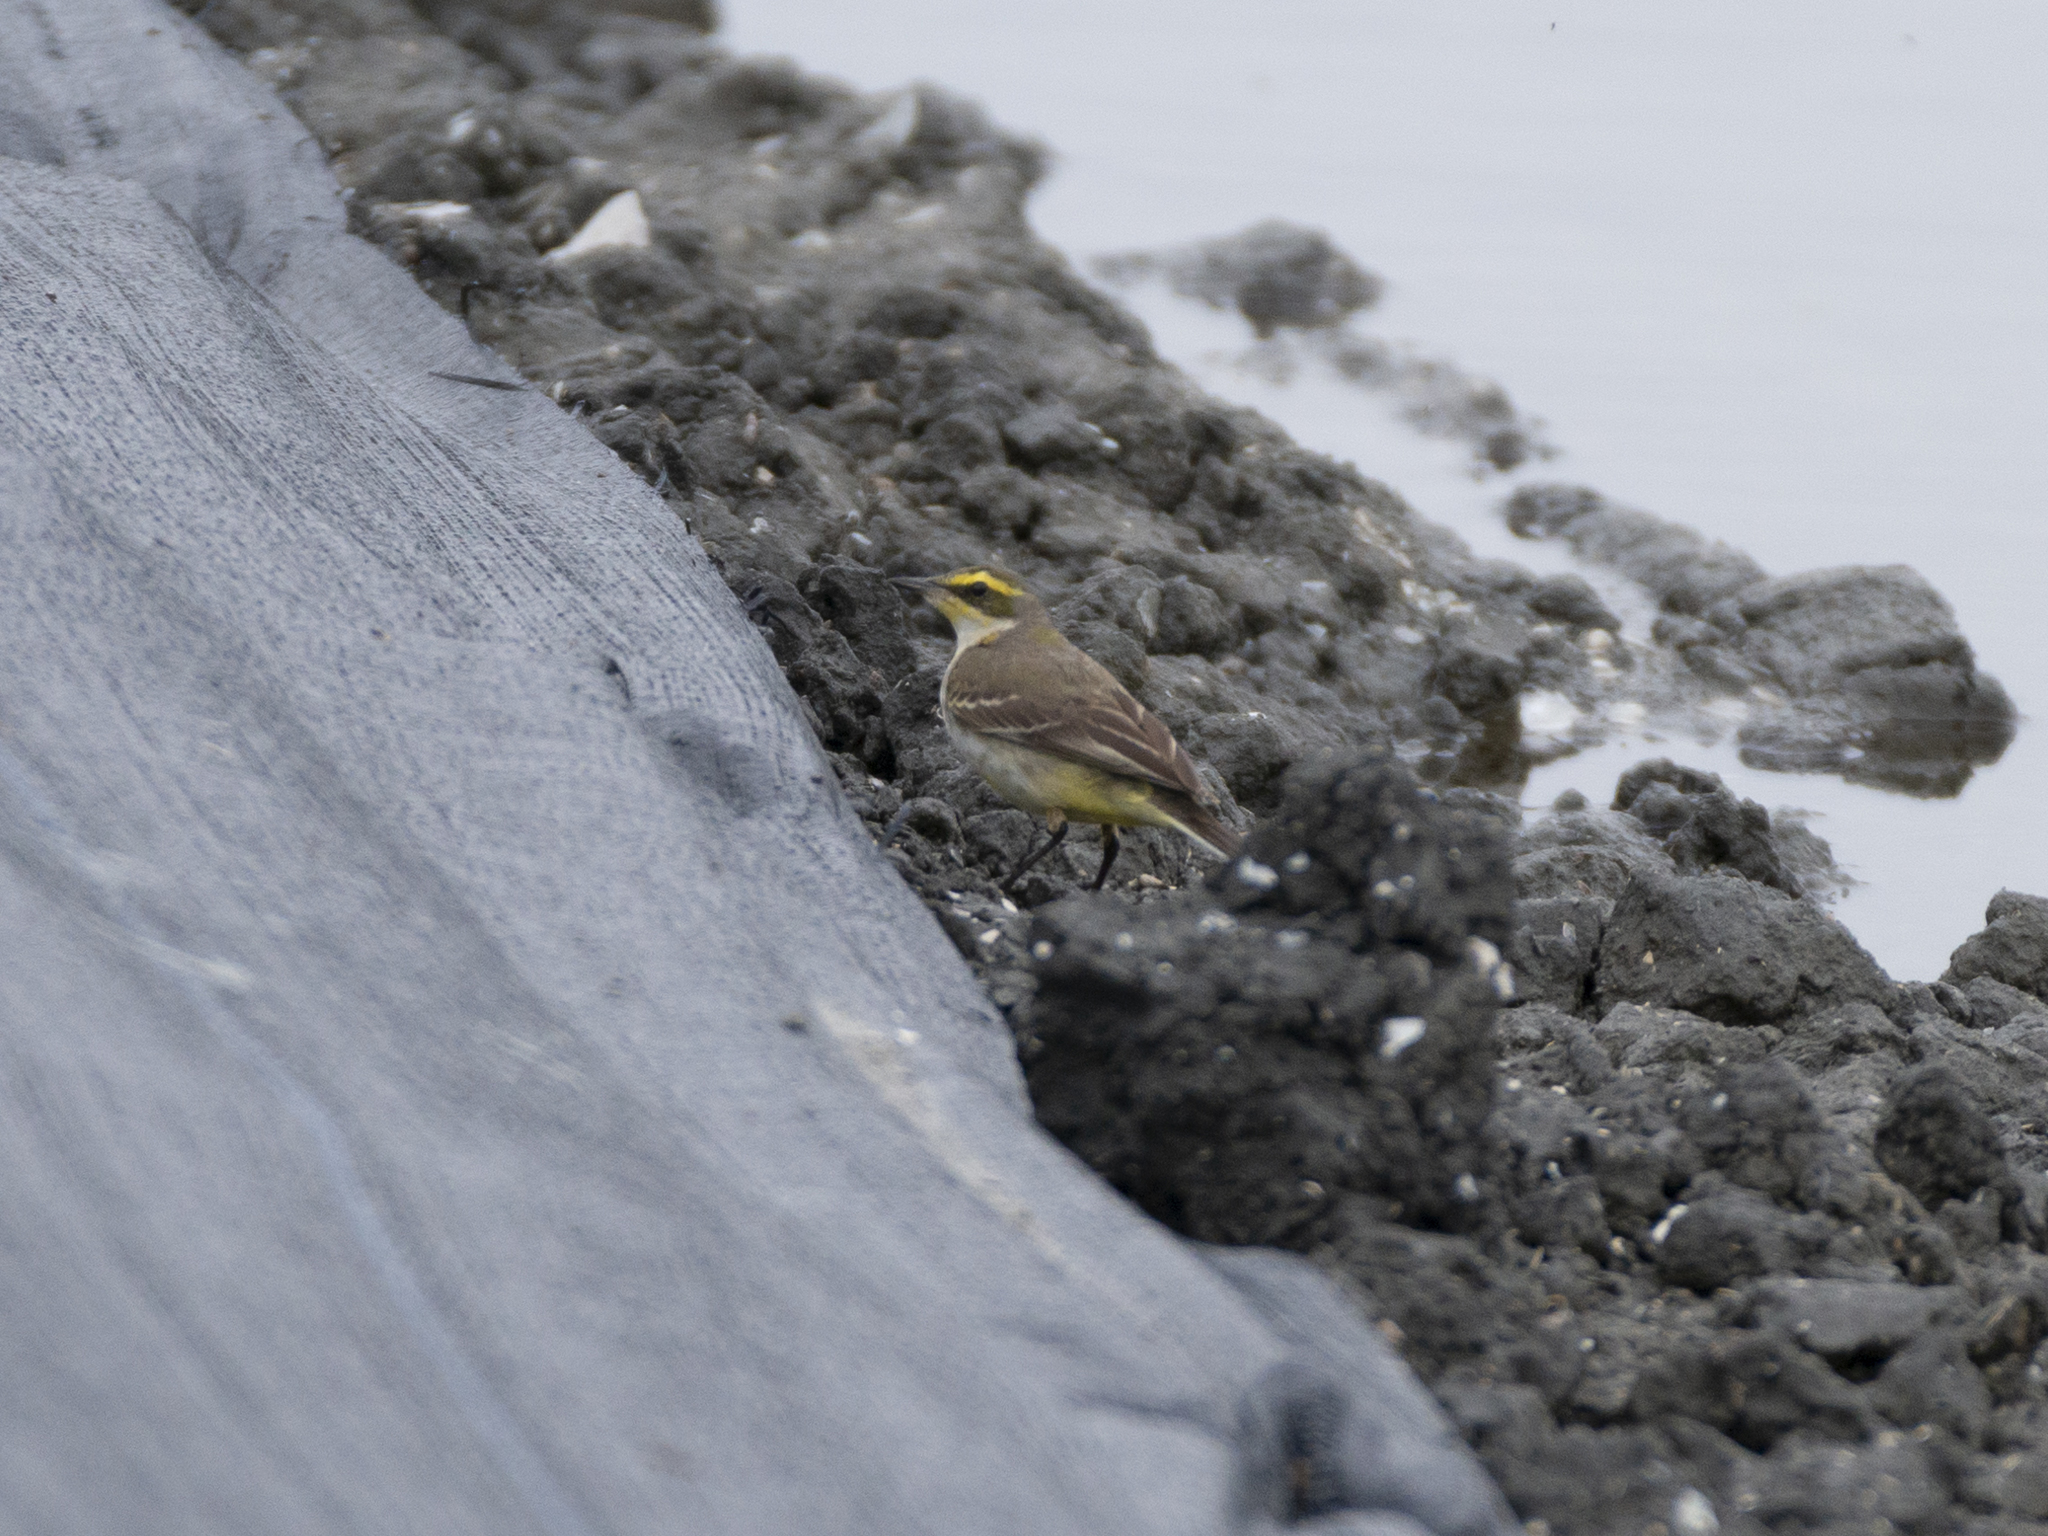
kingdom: Animalia
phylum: Chordata
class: Aves
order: Passeriformes
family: Motacillidae
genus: Motacilla
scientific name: Motacilla tschutschensis
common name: Eastern yellow wagtail
